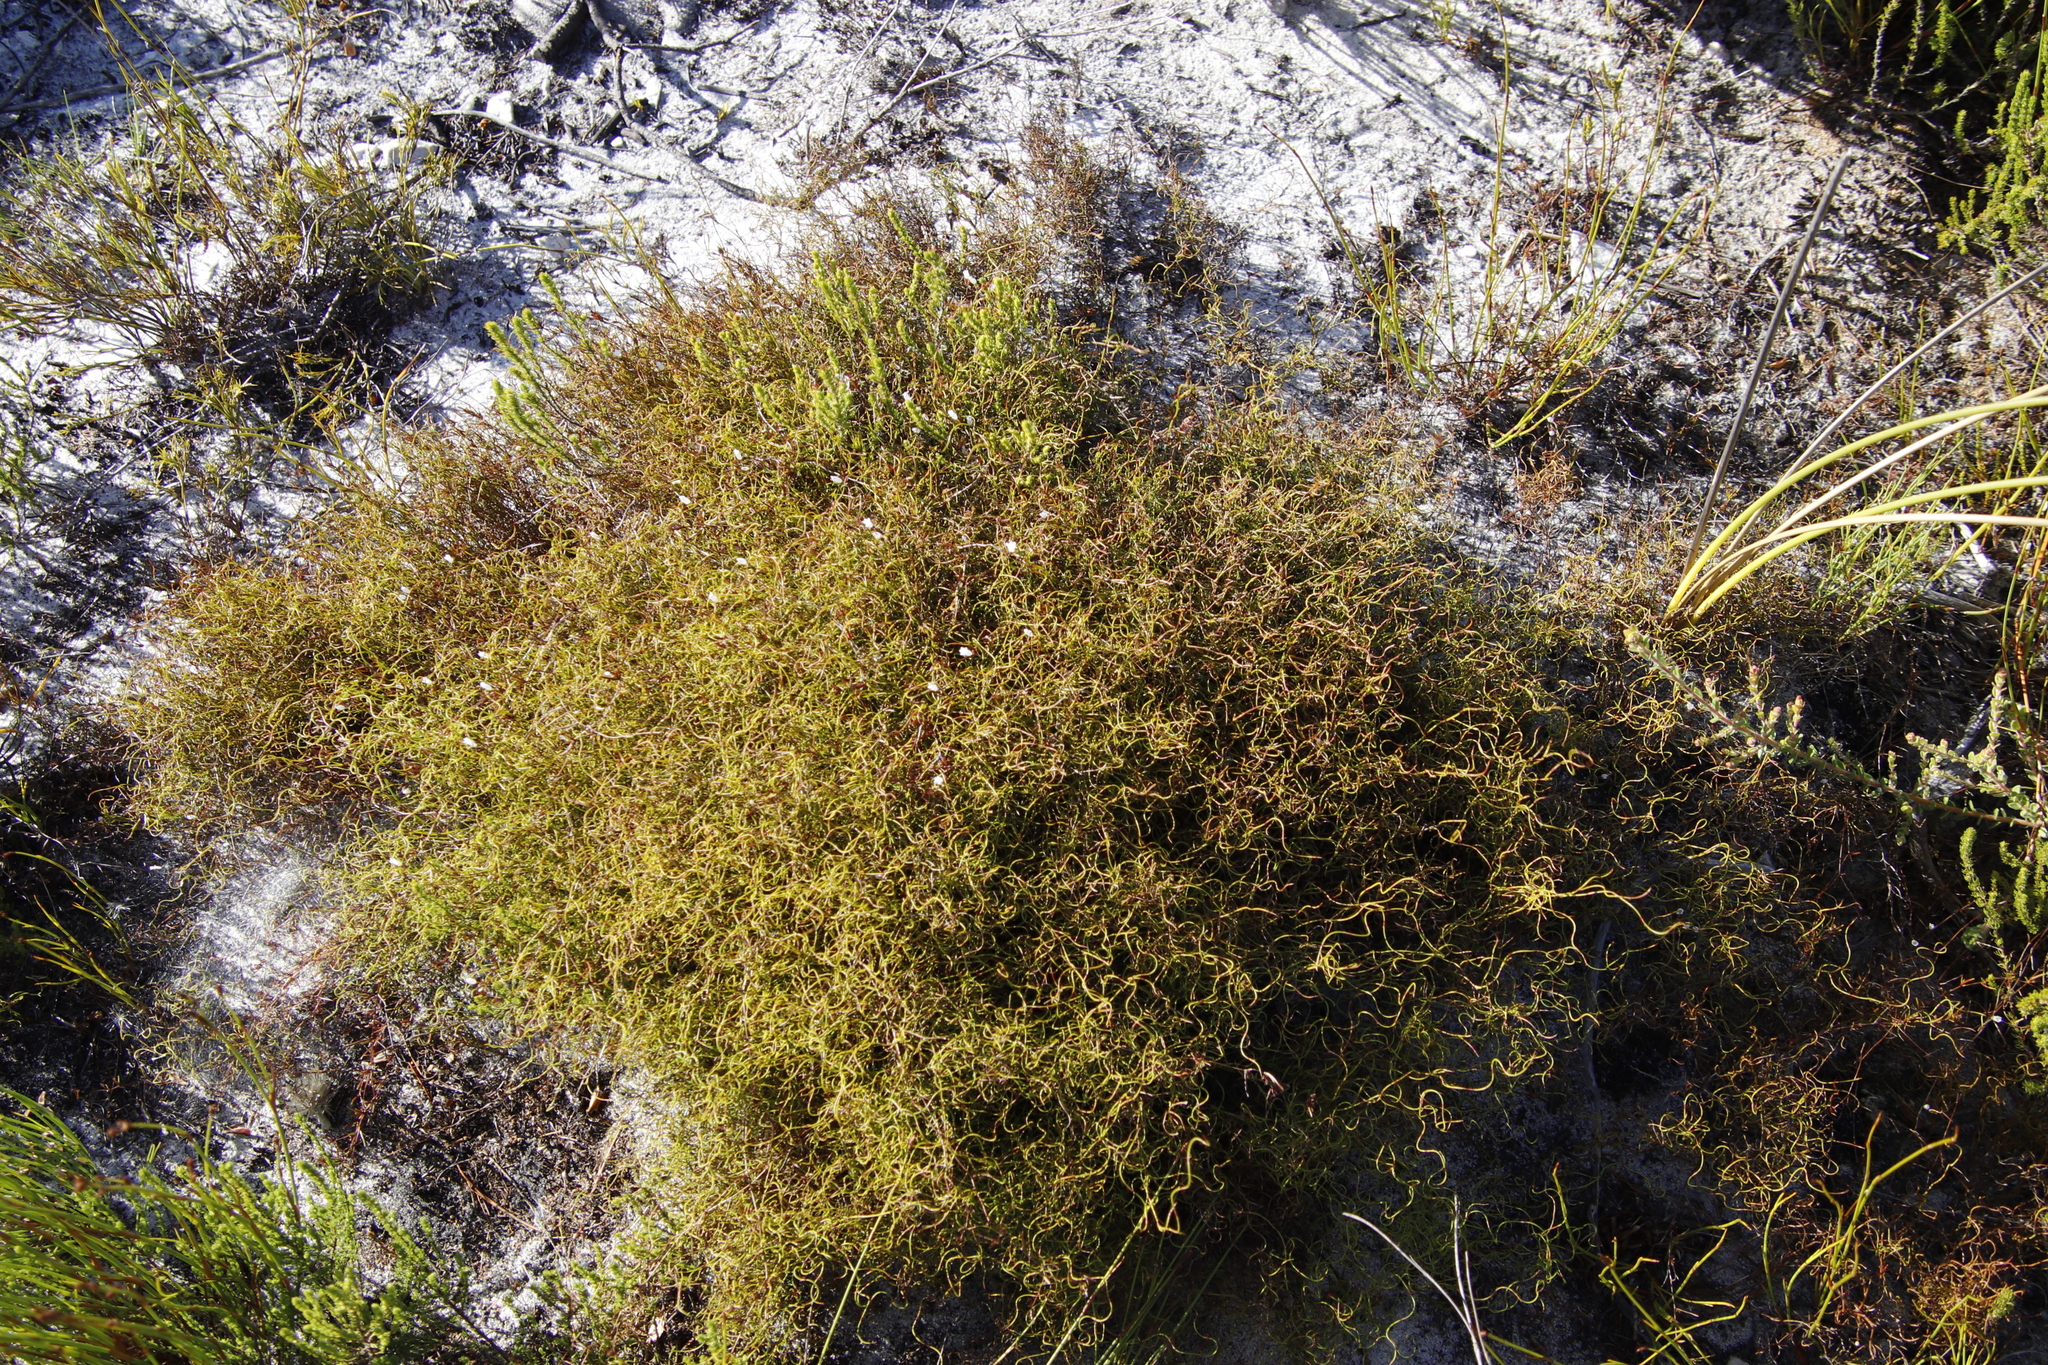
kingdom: Plantae
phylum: Tracheophyta
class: Magnoliopsida
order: Asterales
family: Campanulaceae
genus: Prismatocarpus
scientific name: Prismatocarpus sessilis
